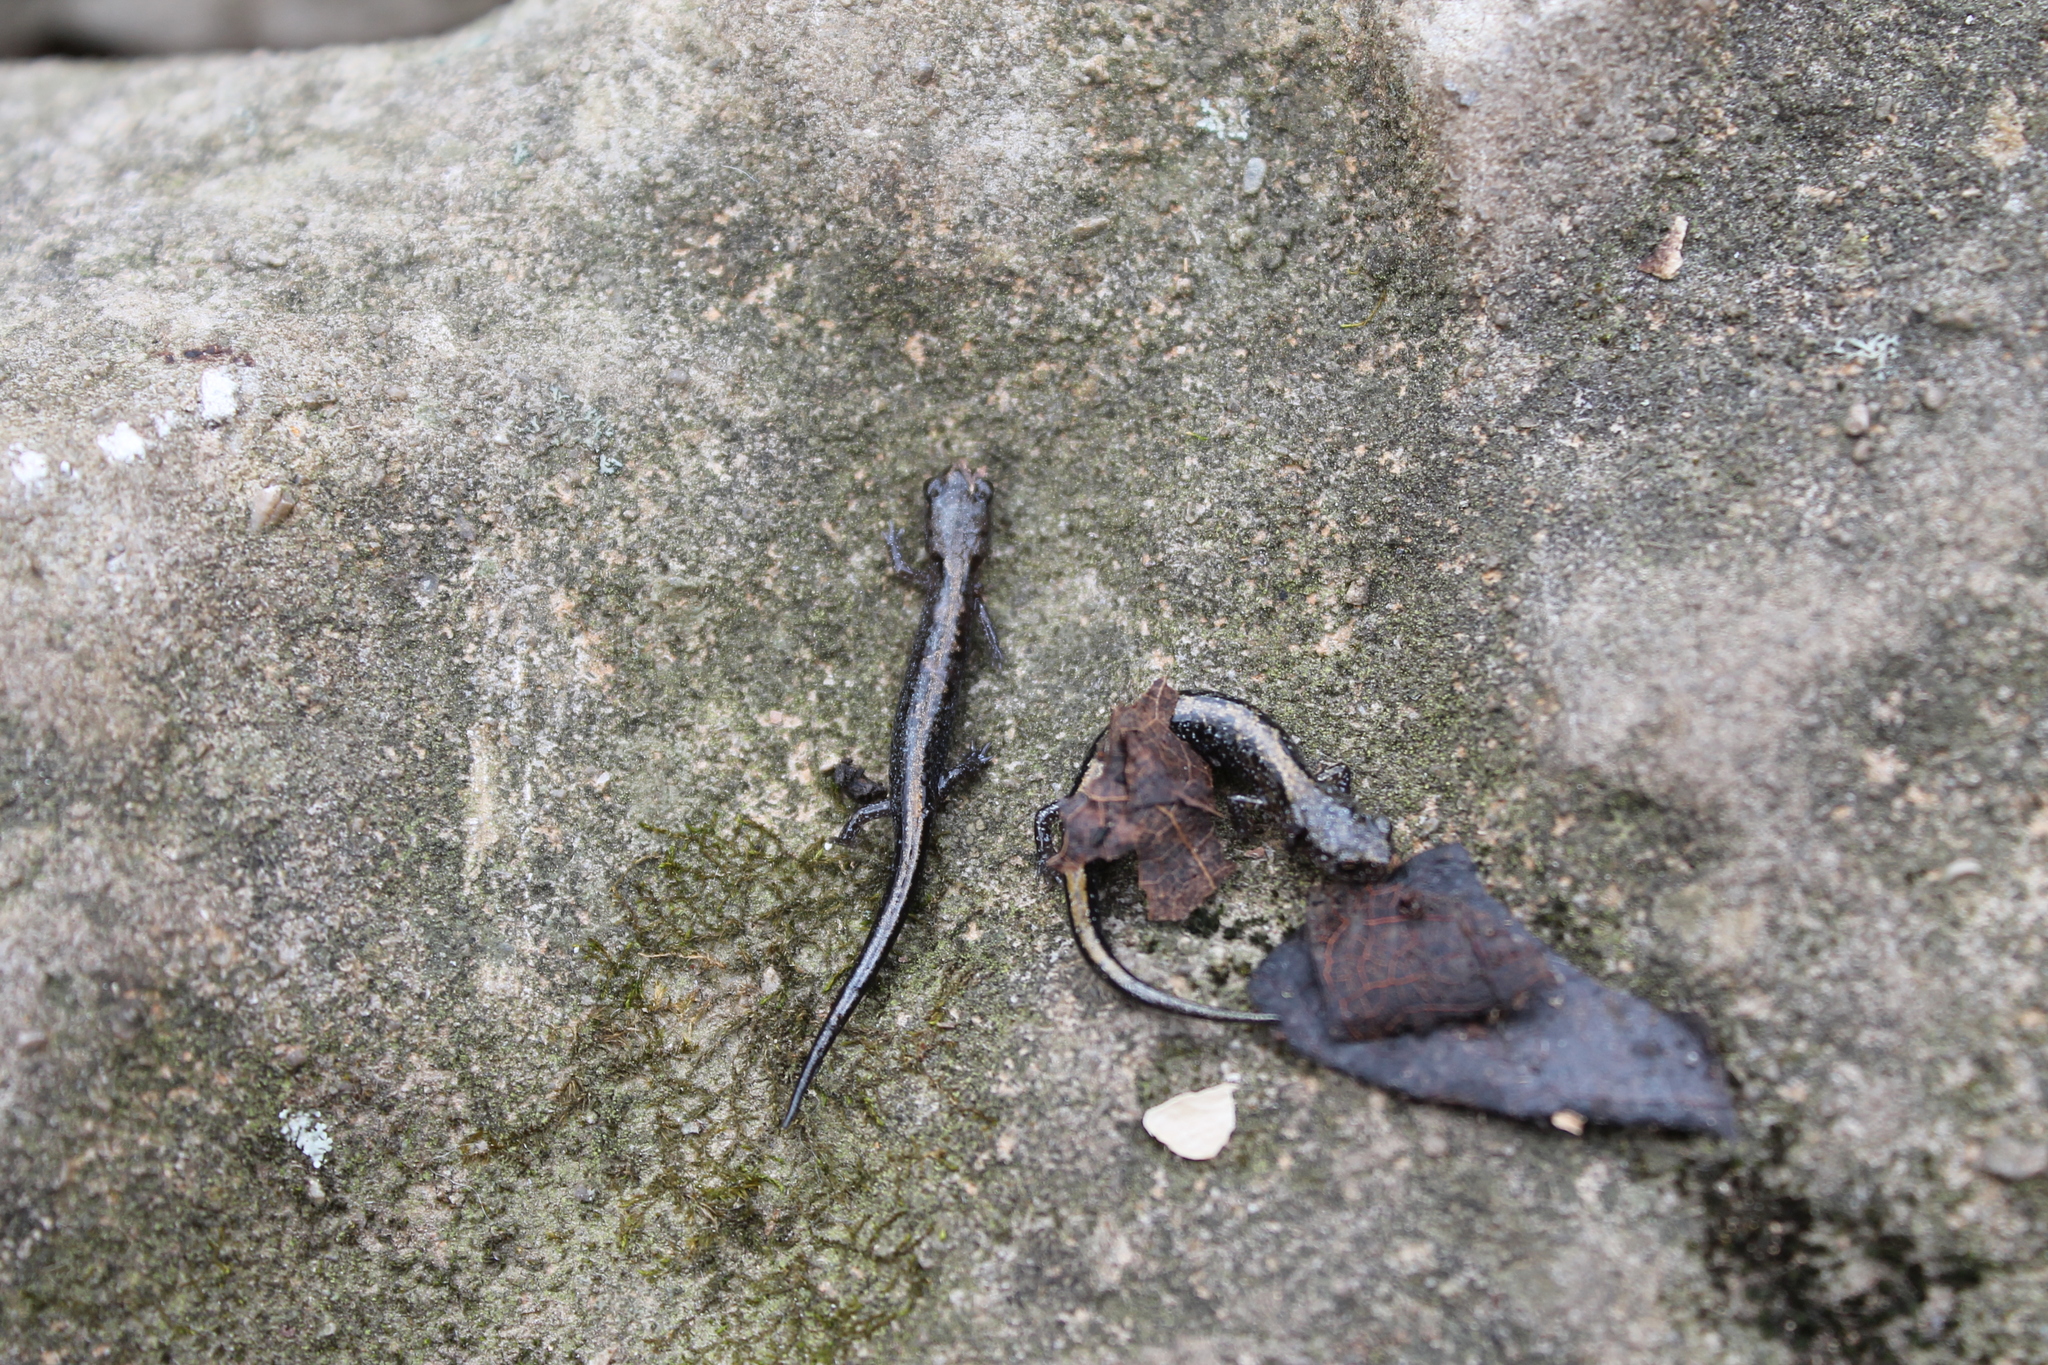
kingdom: Animalia
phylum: Chordata
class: Amphibia
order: Caudata
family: Plethodontidae
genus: Plethodon
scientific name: Plethodon dorsalis
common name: Northern zigzag salamander
